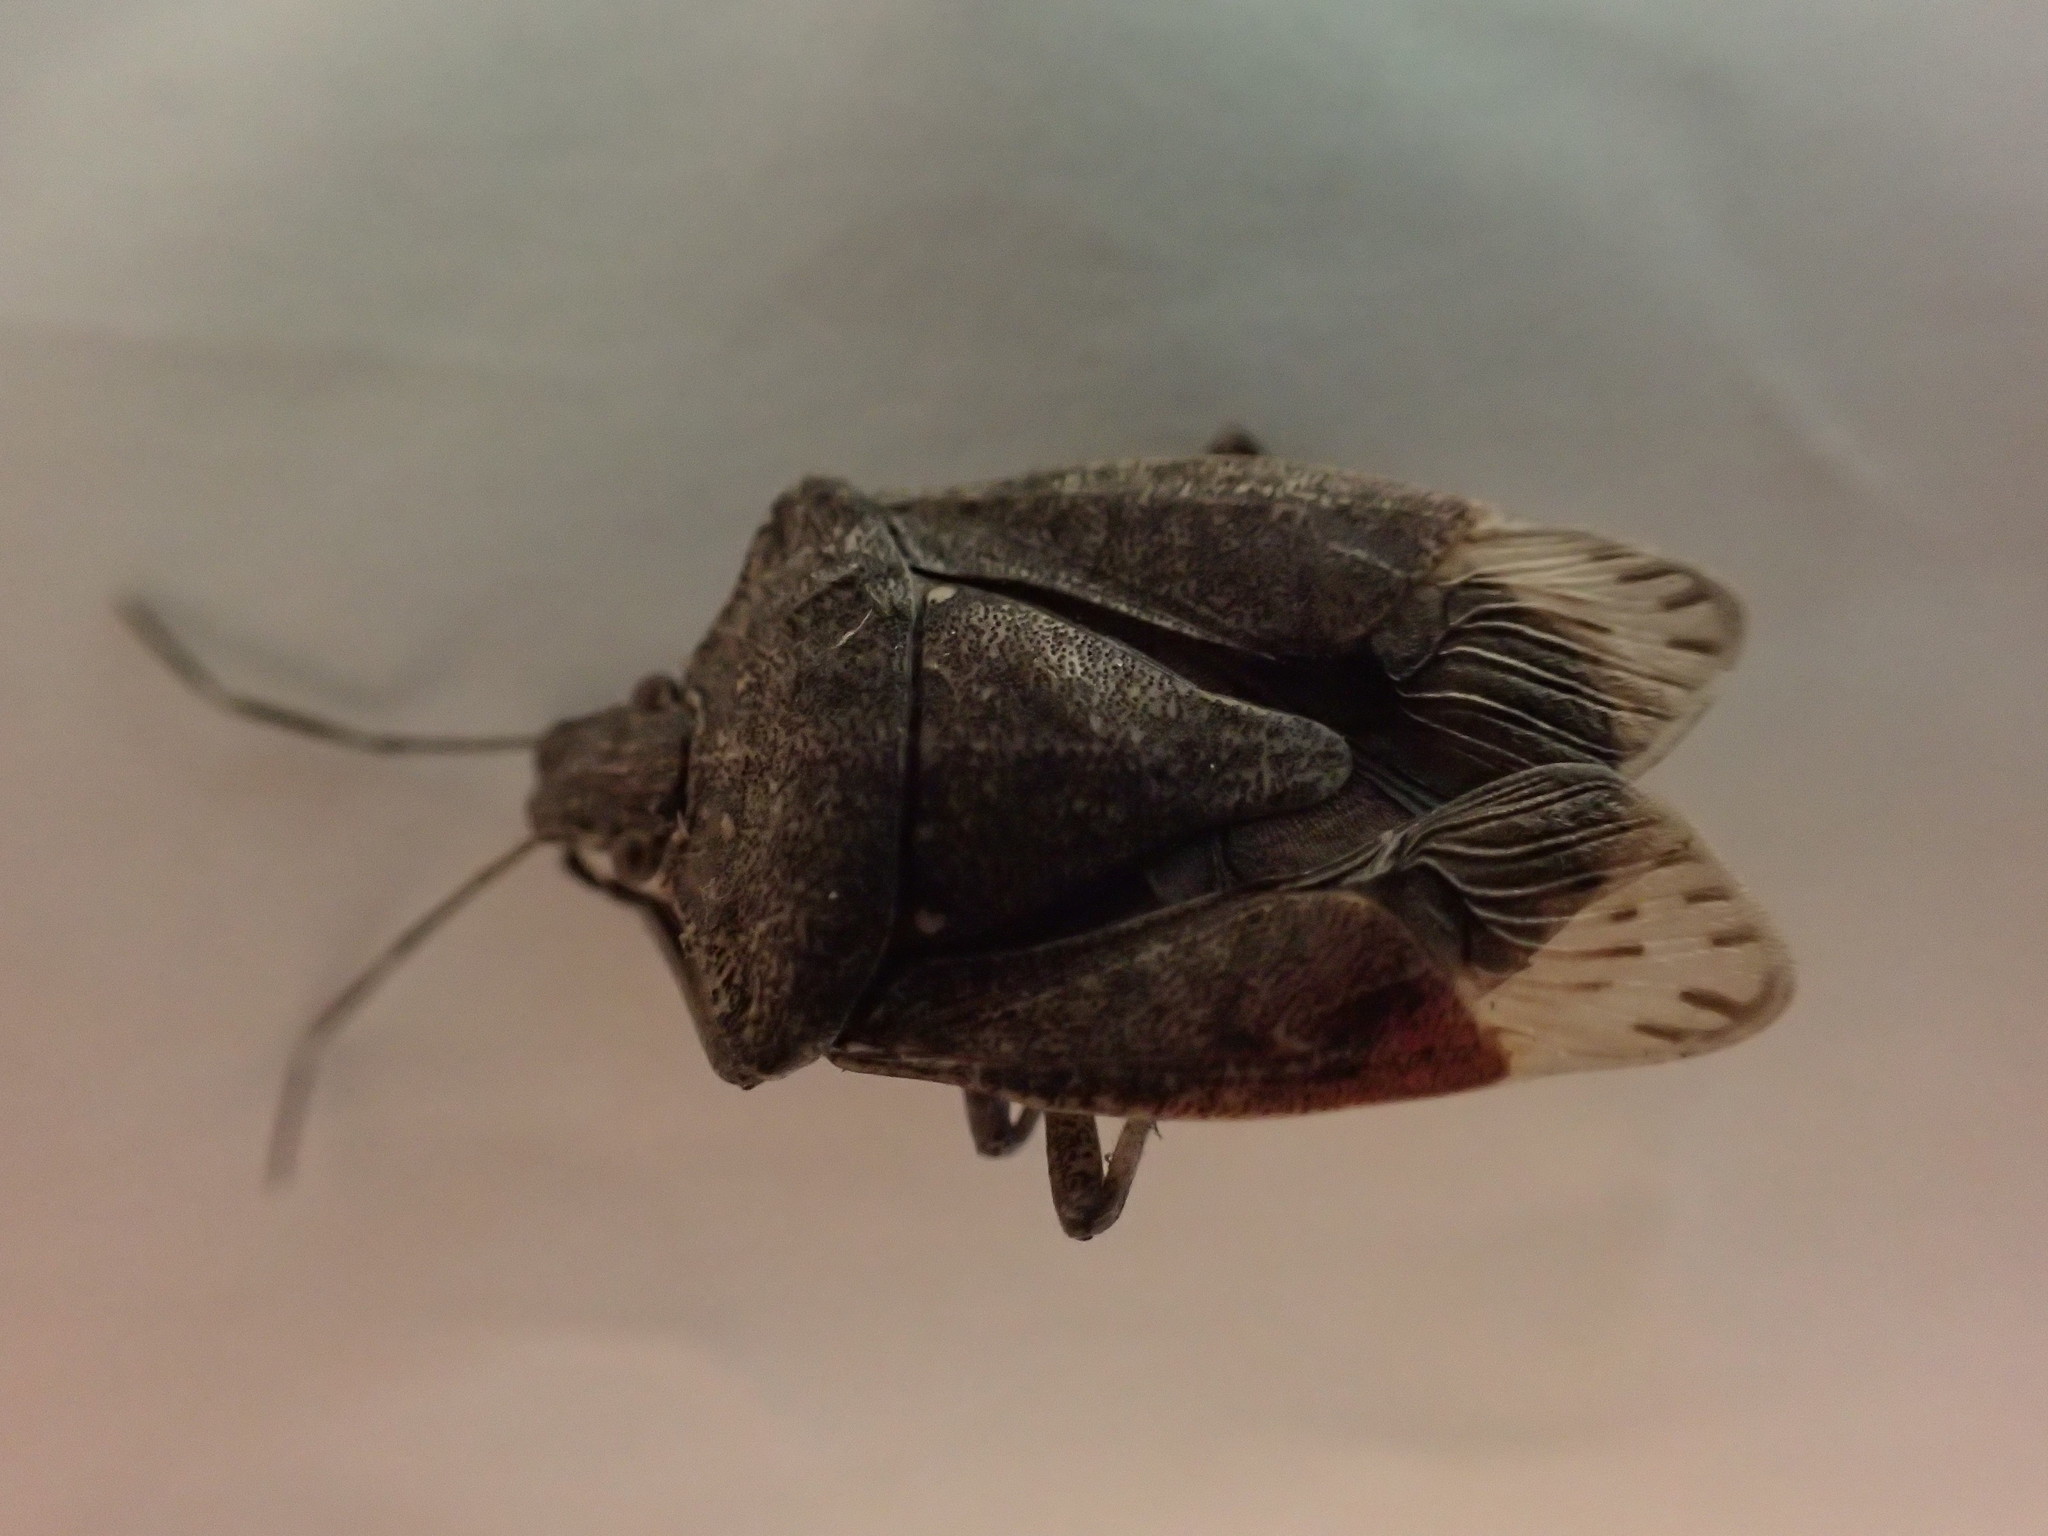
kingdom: Animalia
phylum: Arthropoda
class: Insecta
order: Hemiptera
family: Pentatomidae
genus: Halyomorpha
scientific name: Halyomorpha halys
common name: Brown marmorated stink bug
